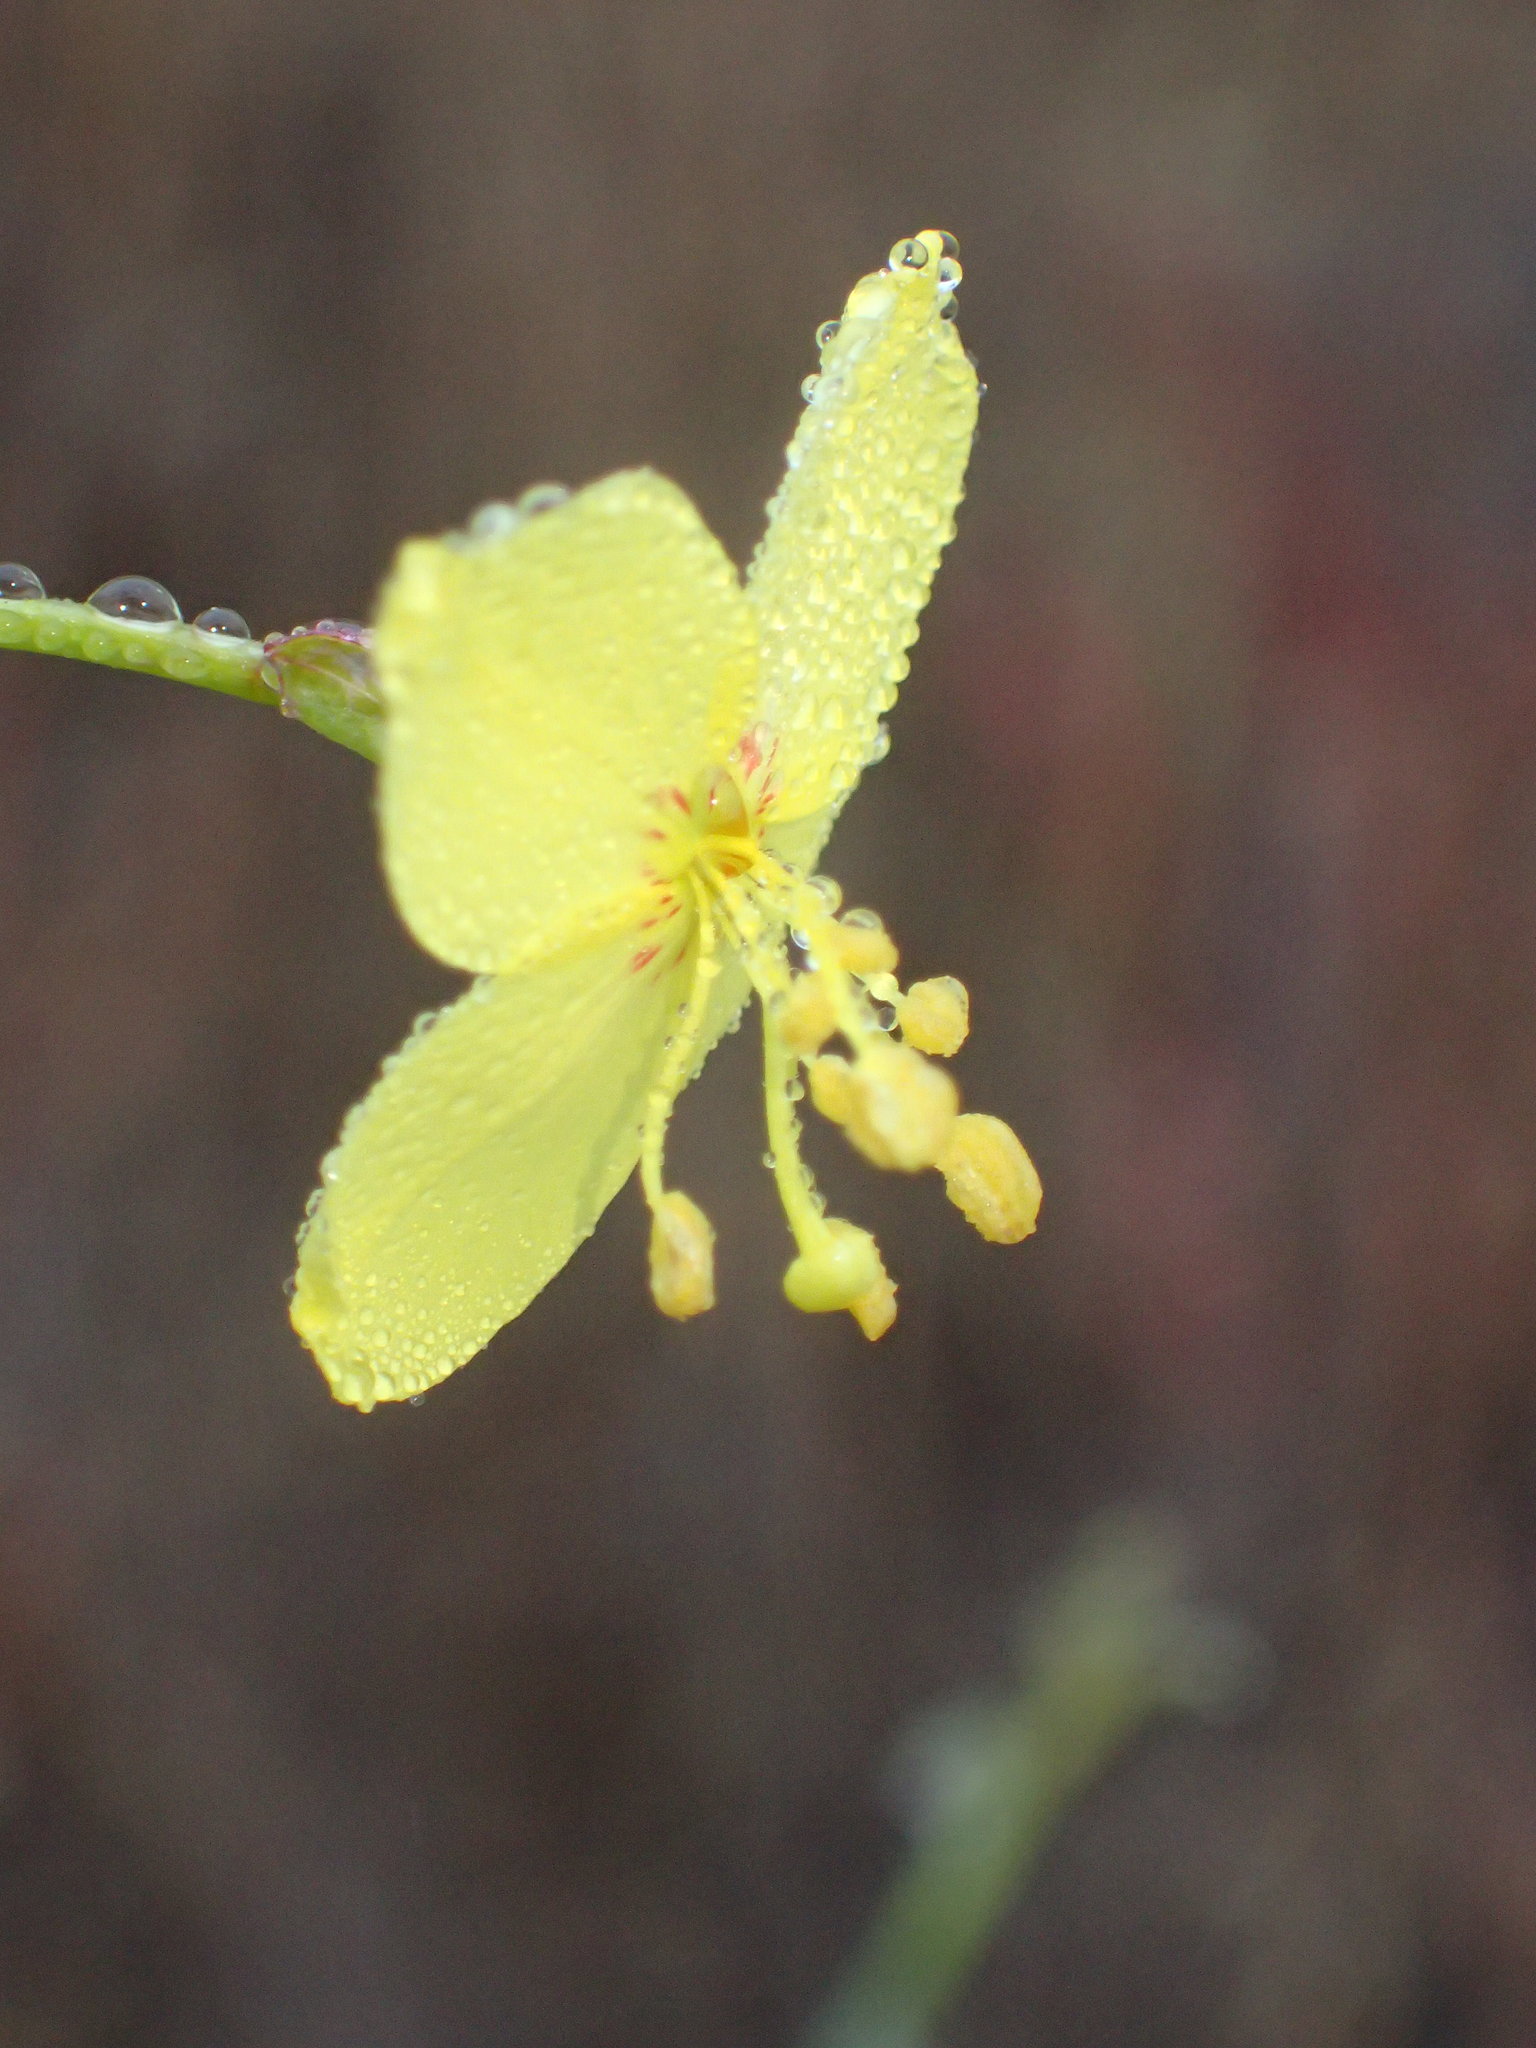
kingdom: Plantae
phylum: Tracheophyta
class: Magnoliopsida
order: Myrtales
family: Onagraceae
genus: Eulobus
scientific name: Eulobus californicus
